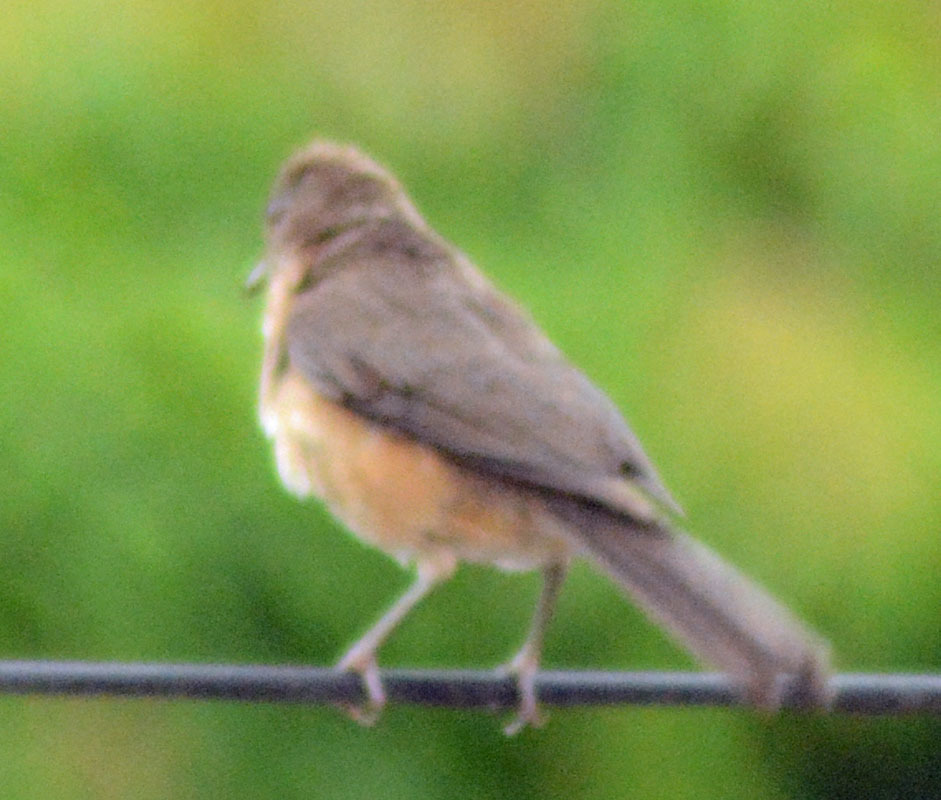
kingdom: Animalia
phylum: Chordata
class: Aves
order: Passeriformes
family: Turdidae
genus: Turdus
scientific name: Turdus grayi
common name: Clay-colored thrush
